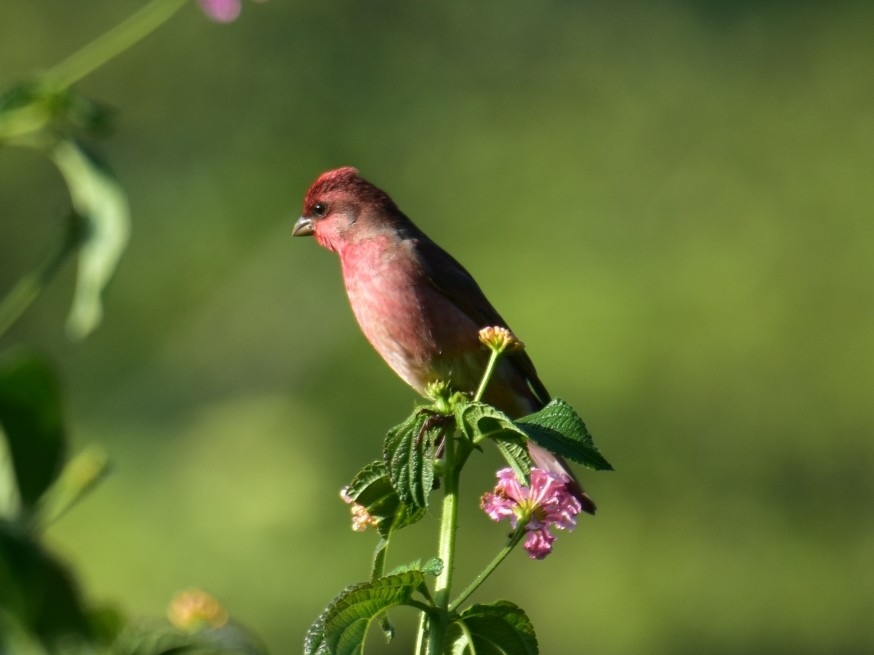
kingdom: Animalia
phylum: Chordata
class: Aves
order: Passeriformes
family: Fringillidae
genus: Carpodacus
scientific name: Carpodacus erythrinus
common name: Common rosefinch
